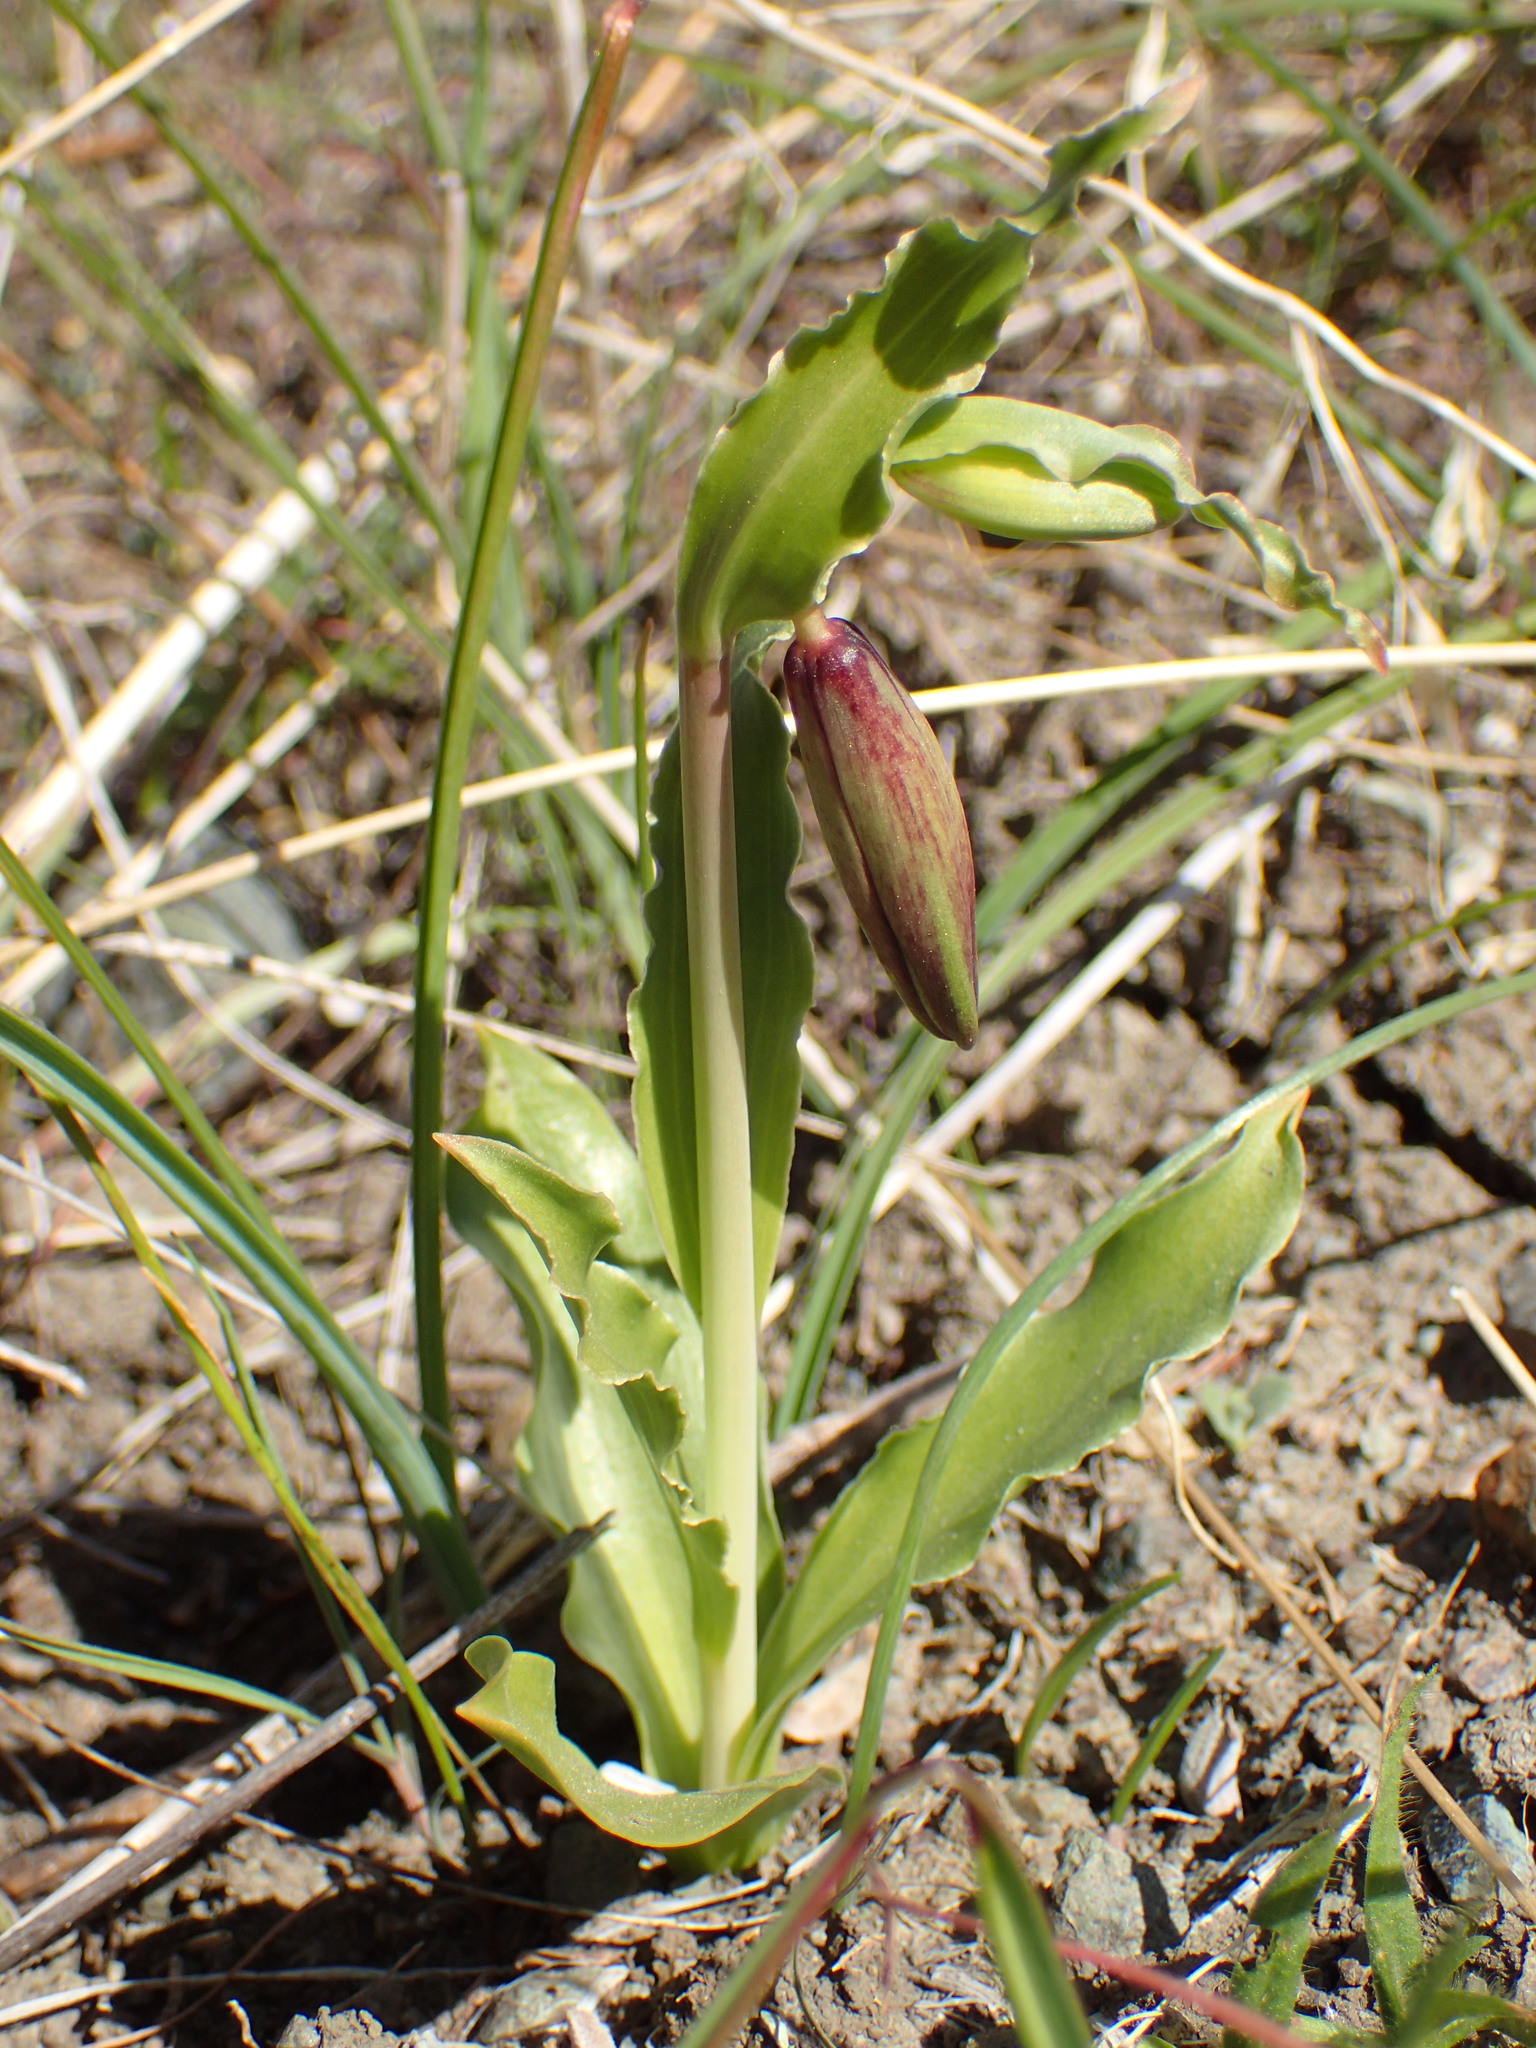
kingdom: Plantae
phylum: Tracheophyta
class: Liliopsida
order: Liliales
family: Liliaceae
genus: Fritillaria
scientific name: Fritillaria biflora
